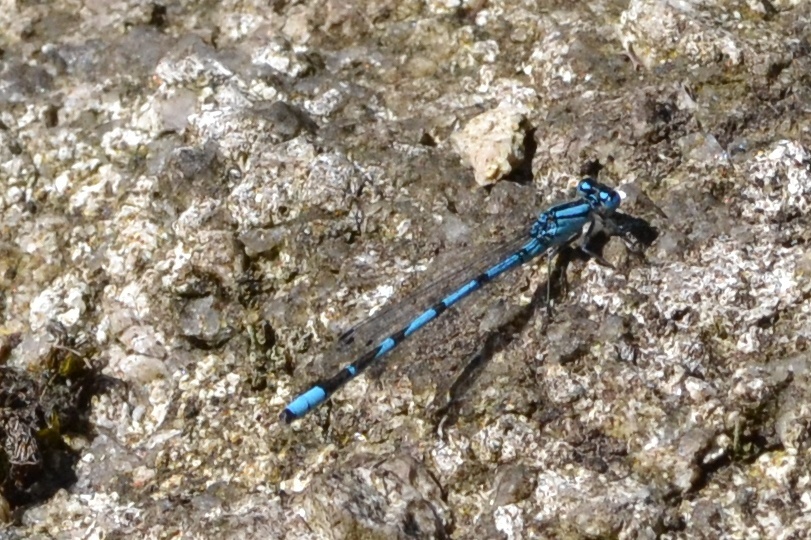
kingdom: Animalia
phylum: Arthropoda
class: Insecta
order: Odonata
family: Coenagrionidae
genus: Enallagma
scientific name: Enallagma cyathigerum
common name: Common blue damselfly
